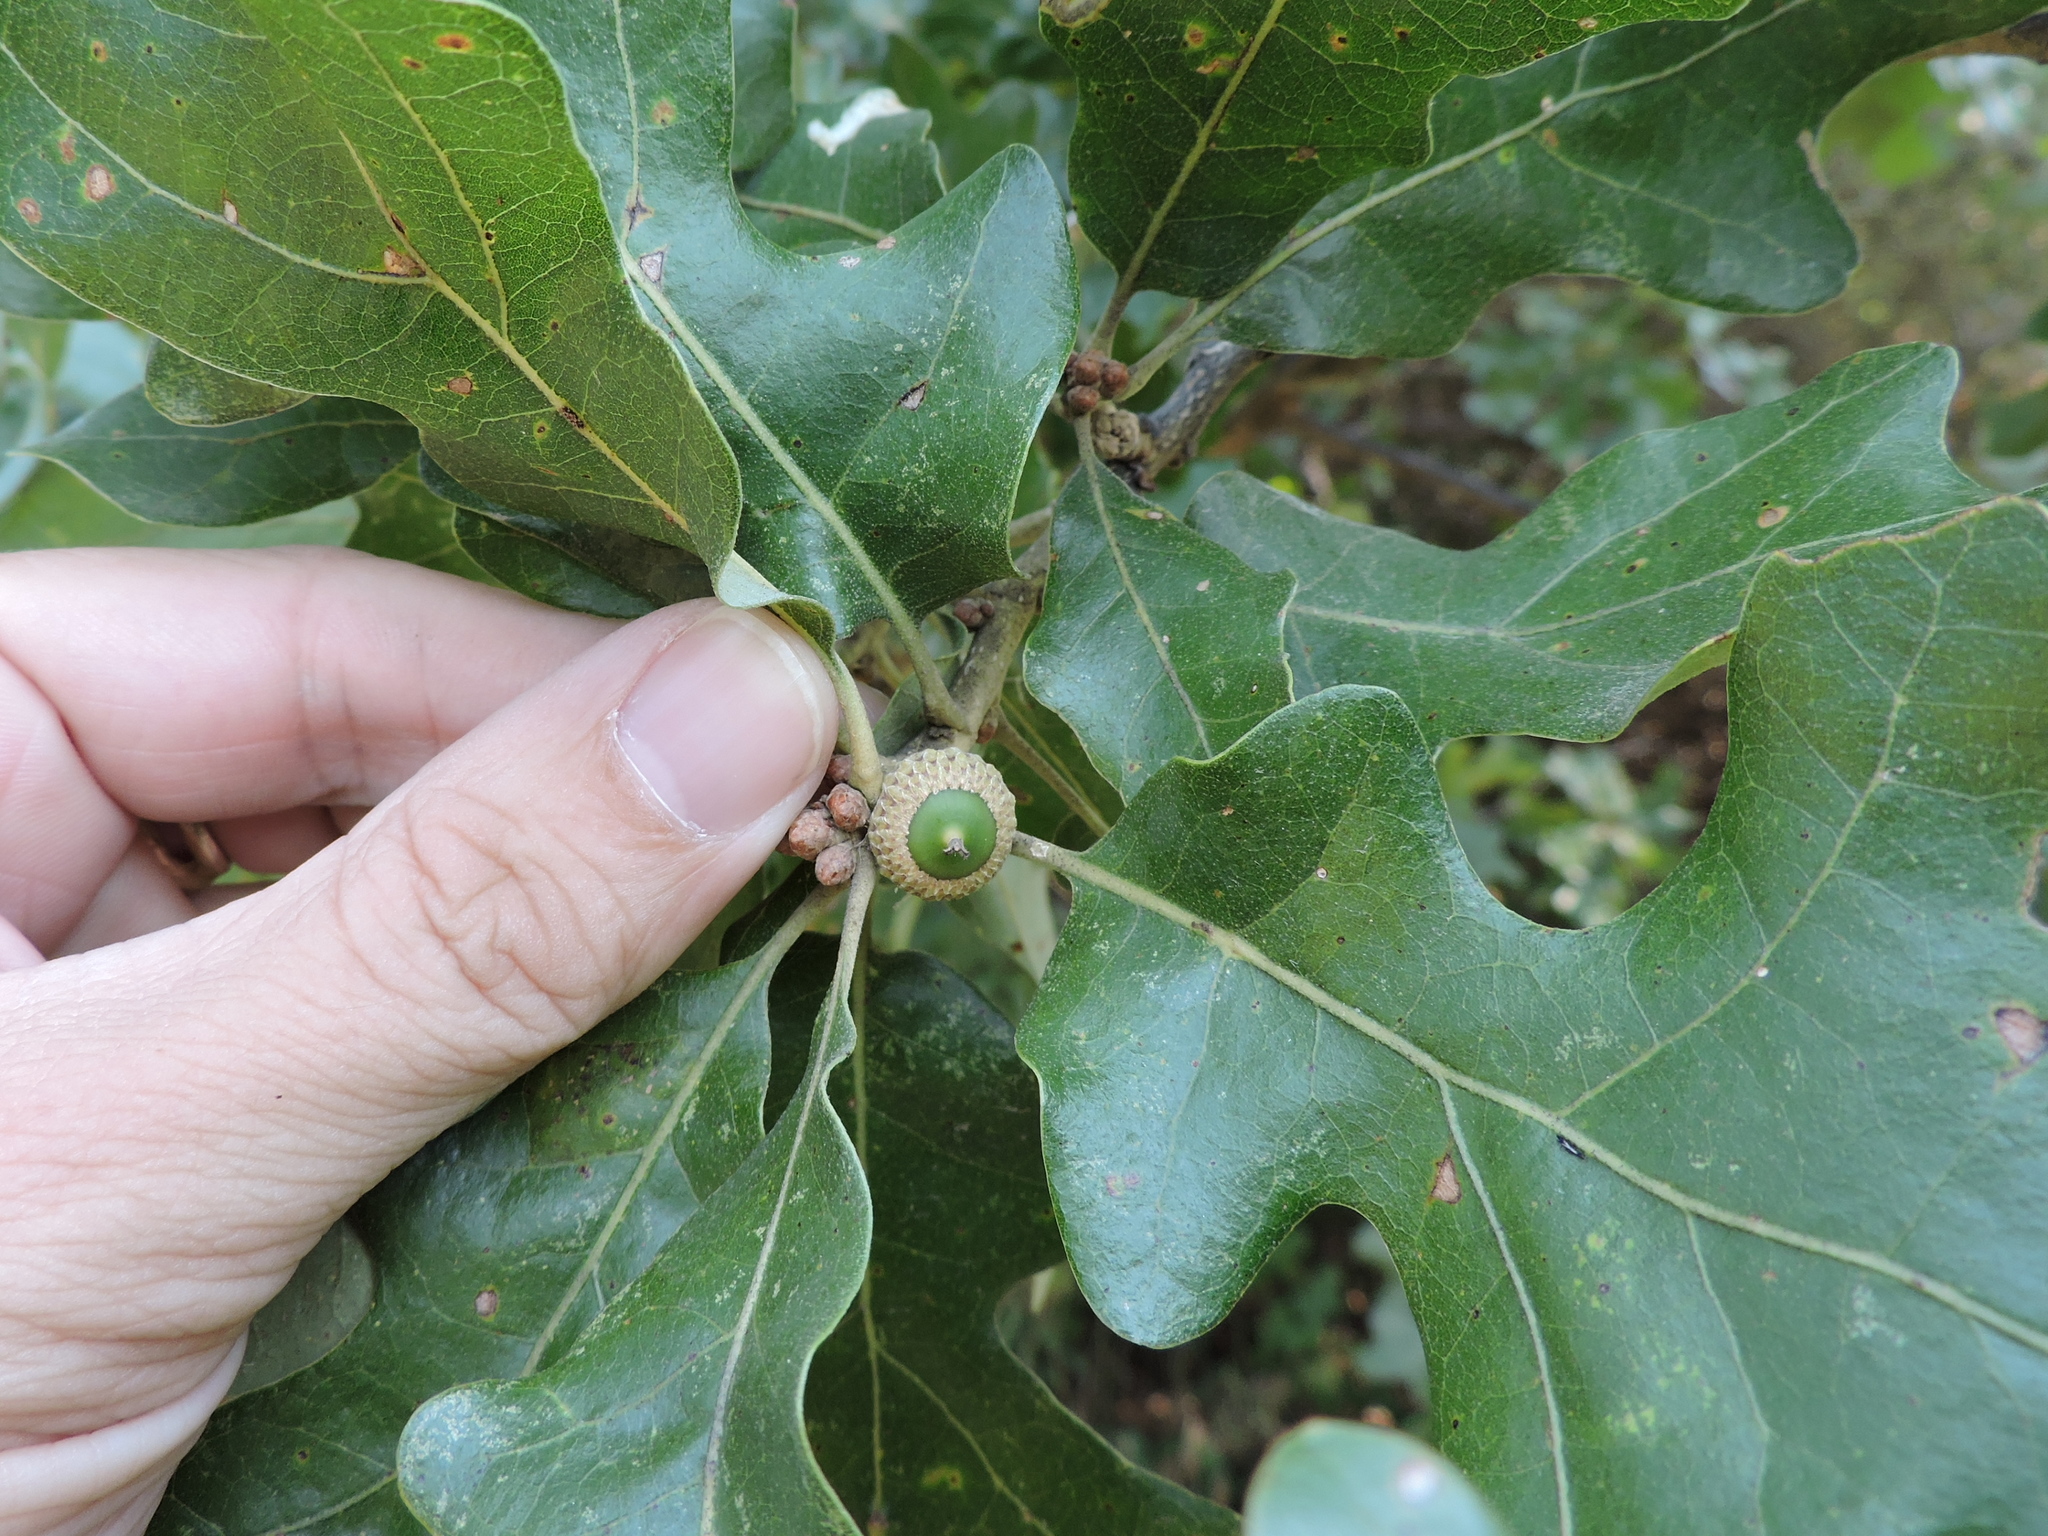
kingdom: Plantae
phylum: Tracheophyta
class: Magnoliopsida
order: Fagales
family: Fagaceae
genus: Quercus
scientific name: Quercus stellata
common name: Post oak
